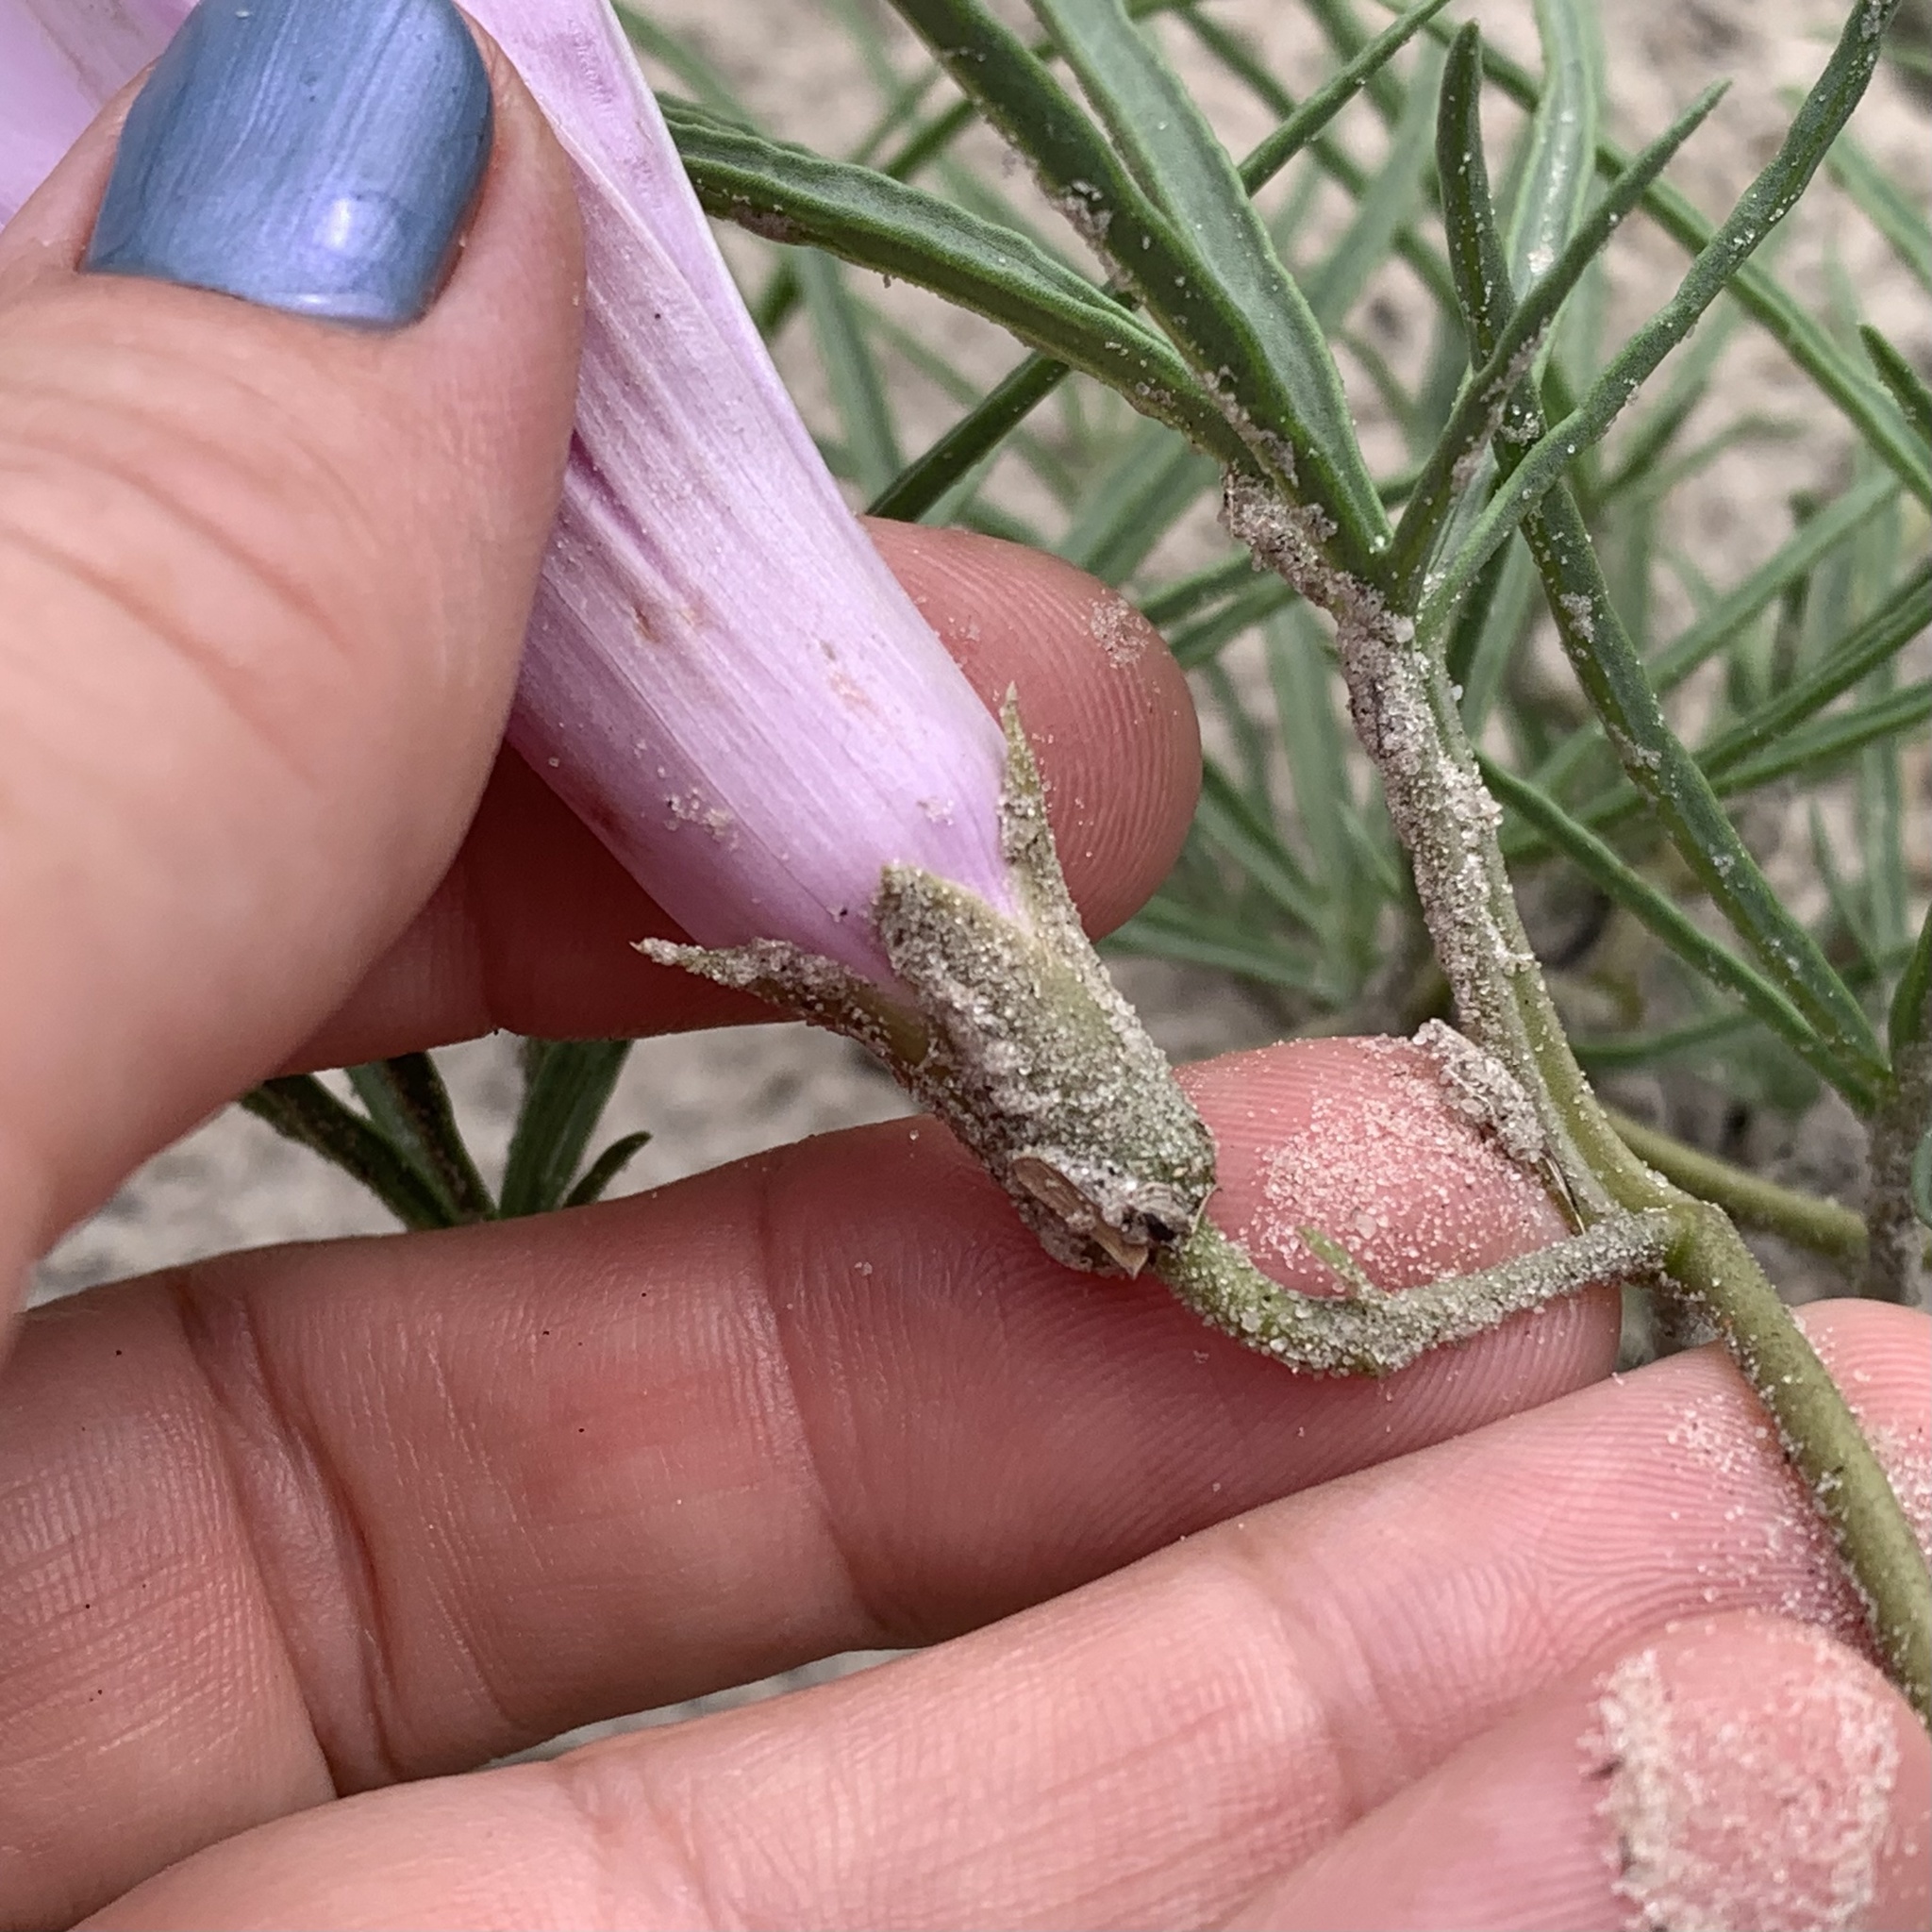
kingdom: Plantae
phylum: Tracheophyta
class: Magnoliopsida
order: Solanales
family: Convolvulaceae
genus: Ipomoea
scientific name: Ipomoea bolusiana
